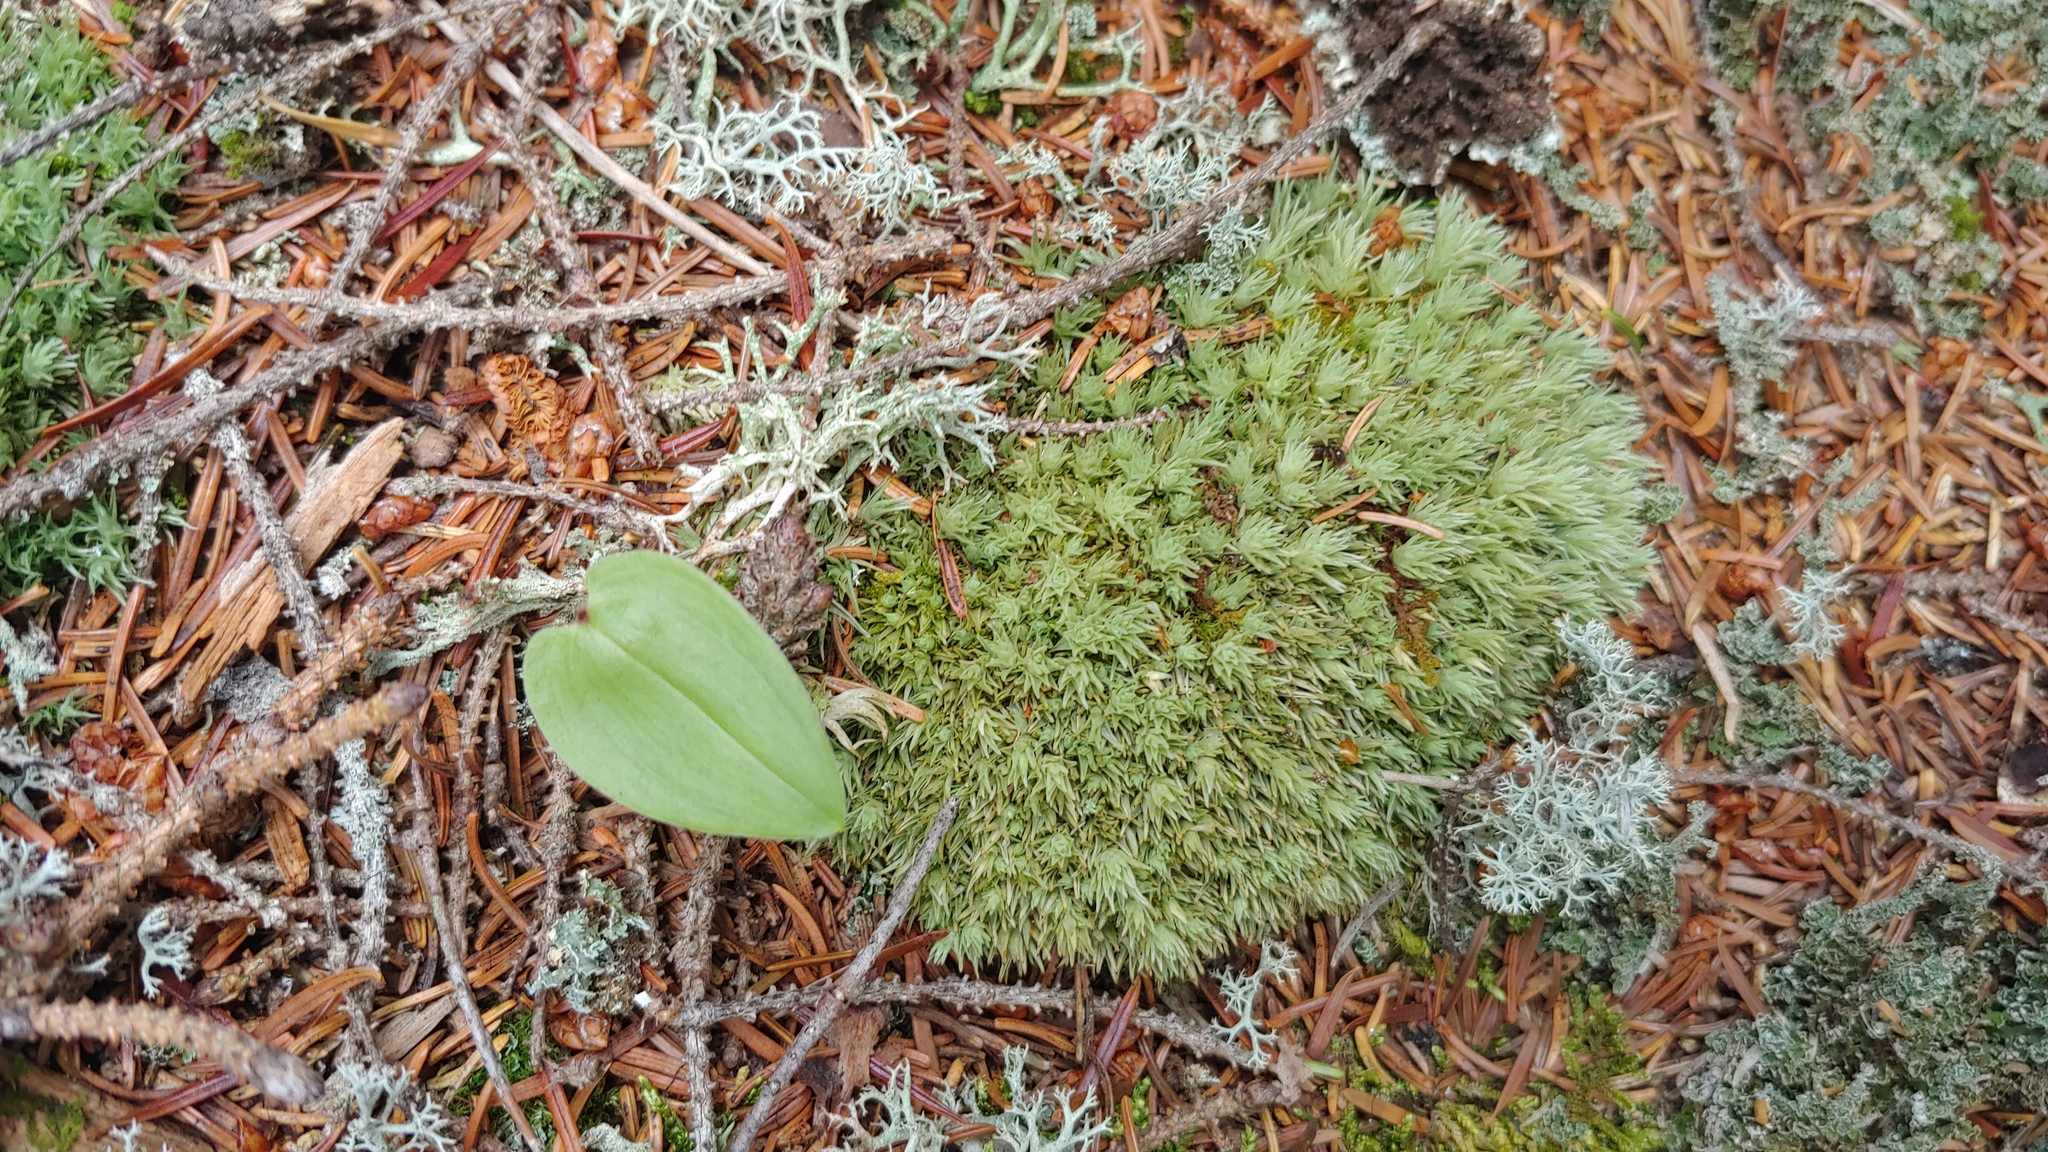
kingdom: Plantae
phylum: Bryophyta
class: Bryopsida
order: Dicranales
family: Leucobryaceae
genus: Leucobryum
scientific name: Leucobryum glaucum
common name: Large white-moss
